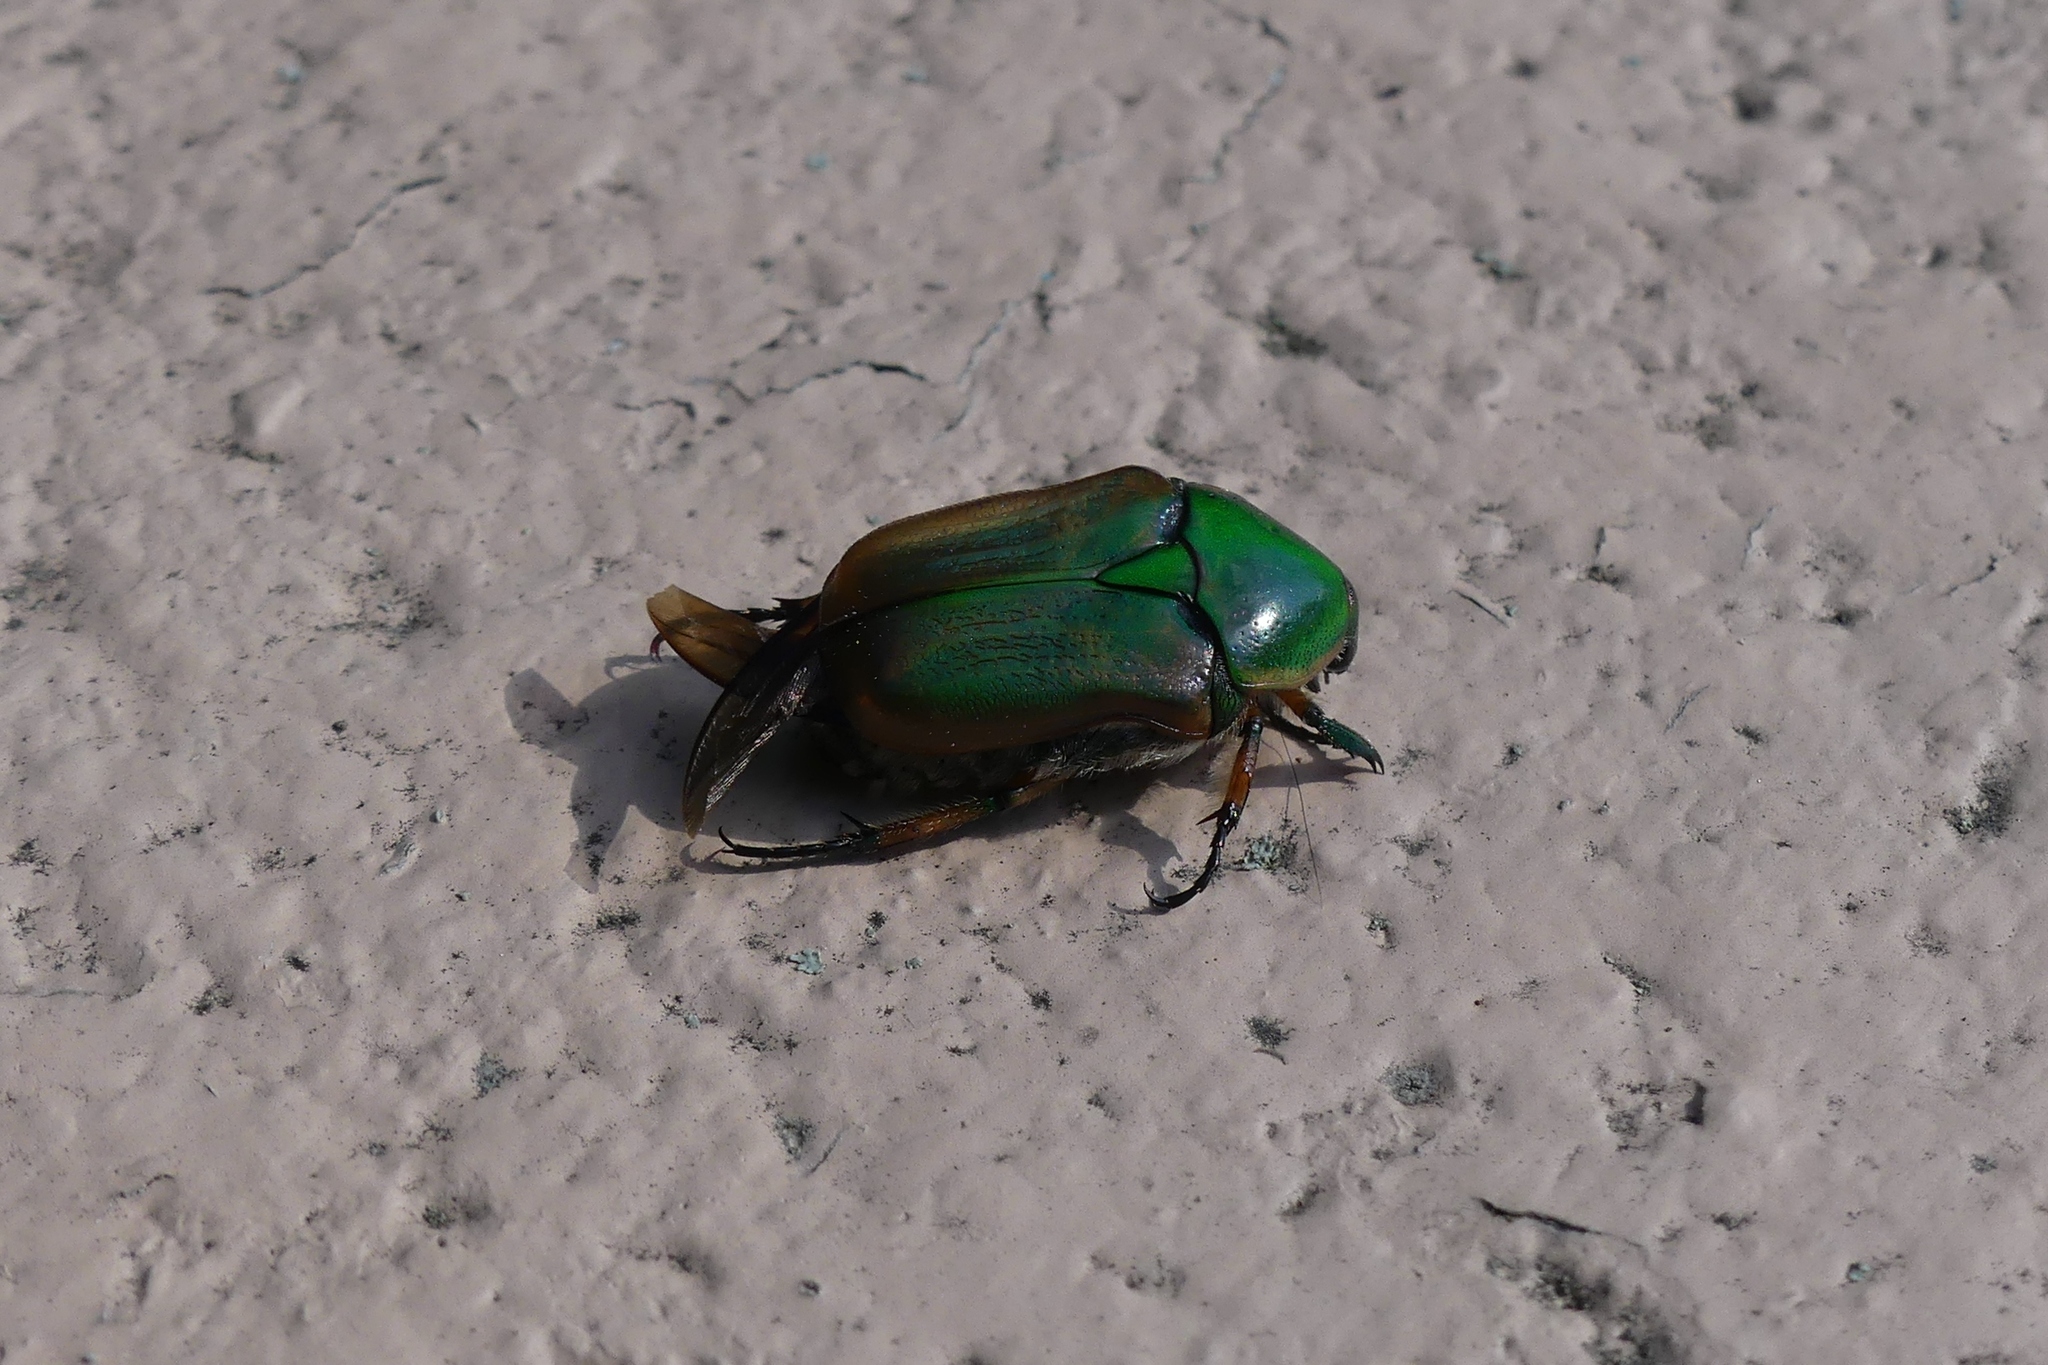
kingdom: Animalia
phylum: Arthropoda
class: Insecta
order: Coleoptera
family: Scarabaeidae
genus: Euphoria
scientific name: Euphoria fulgida
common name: Emerald euphoria
